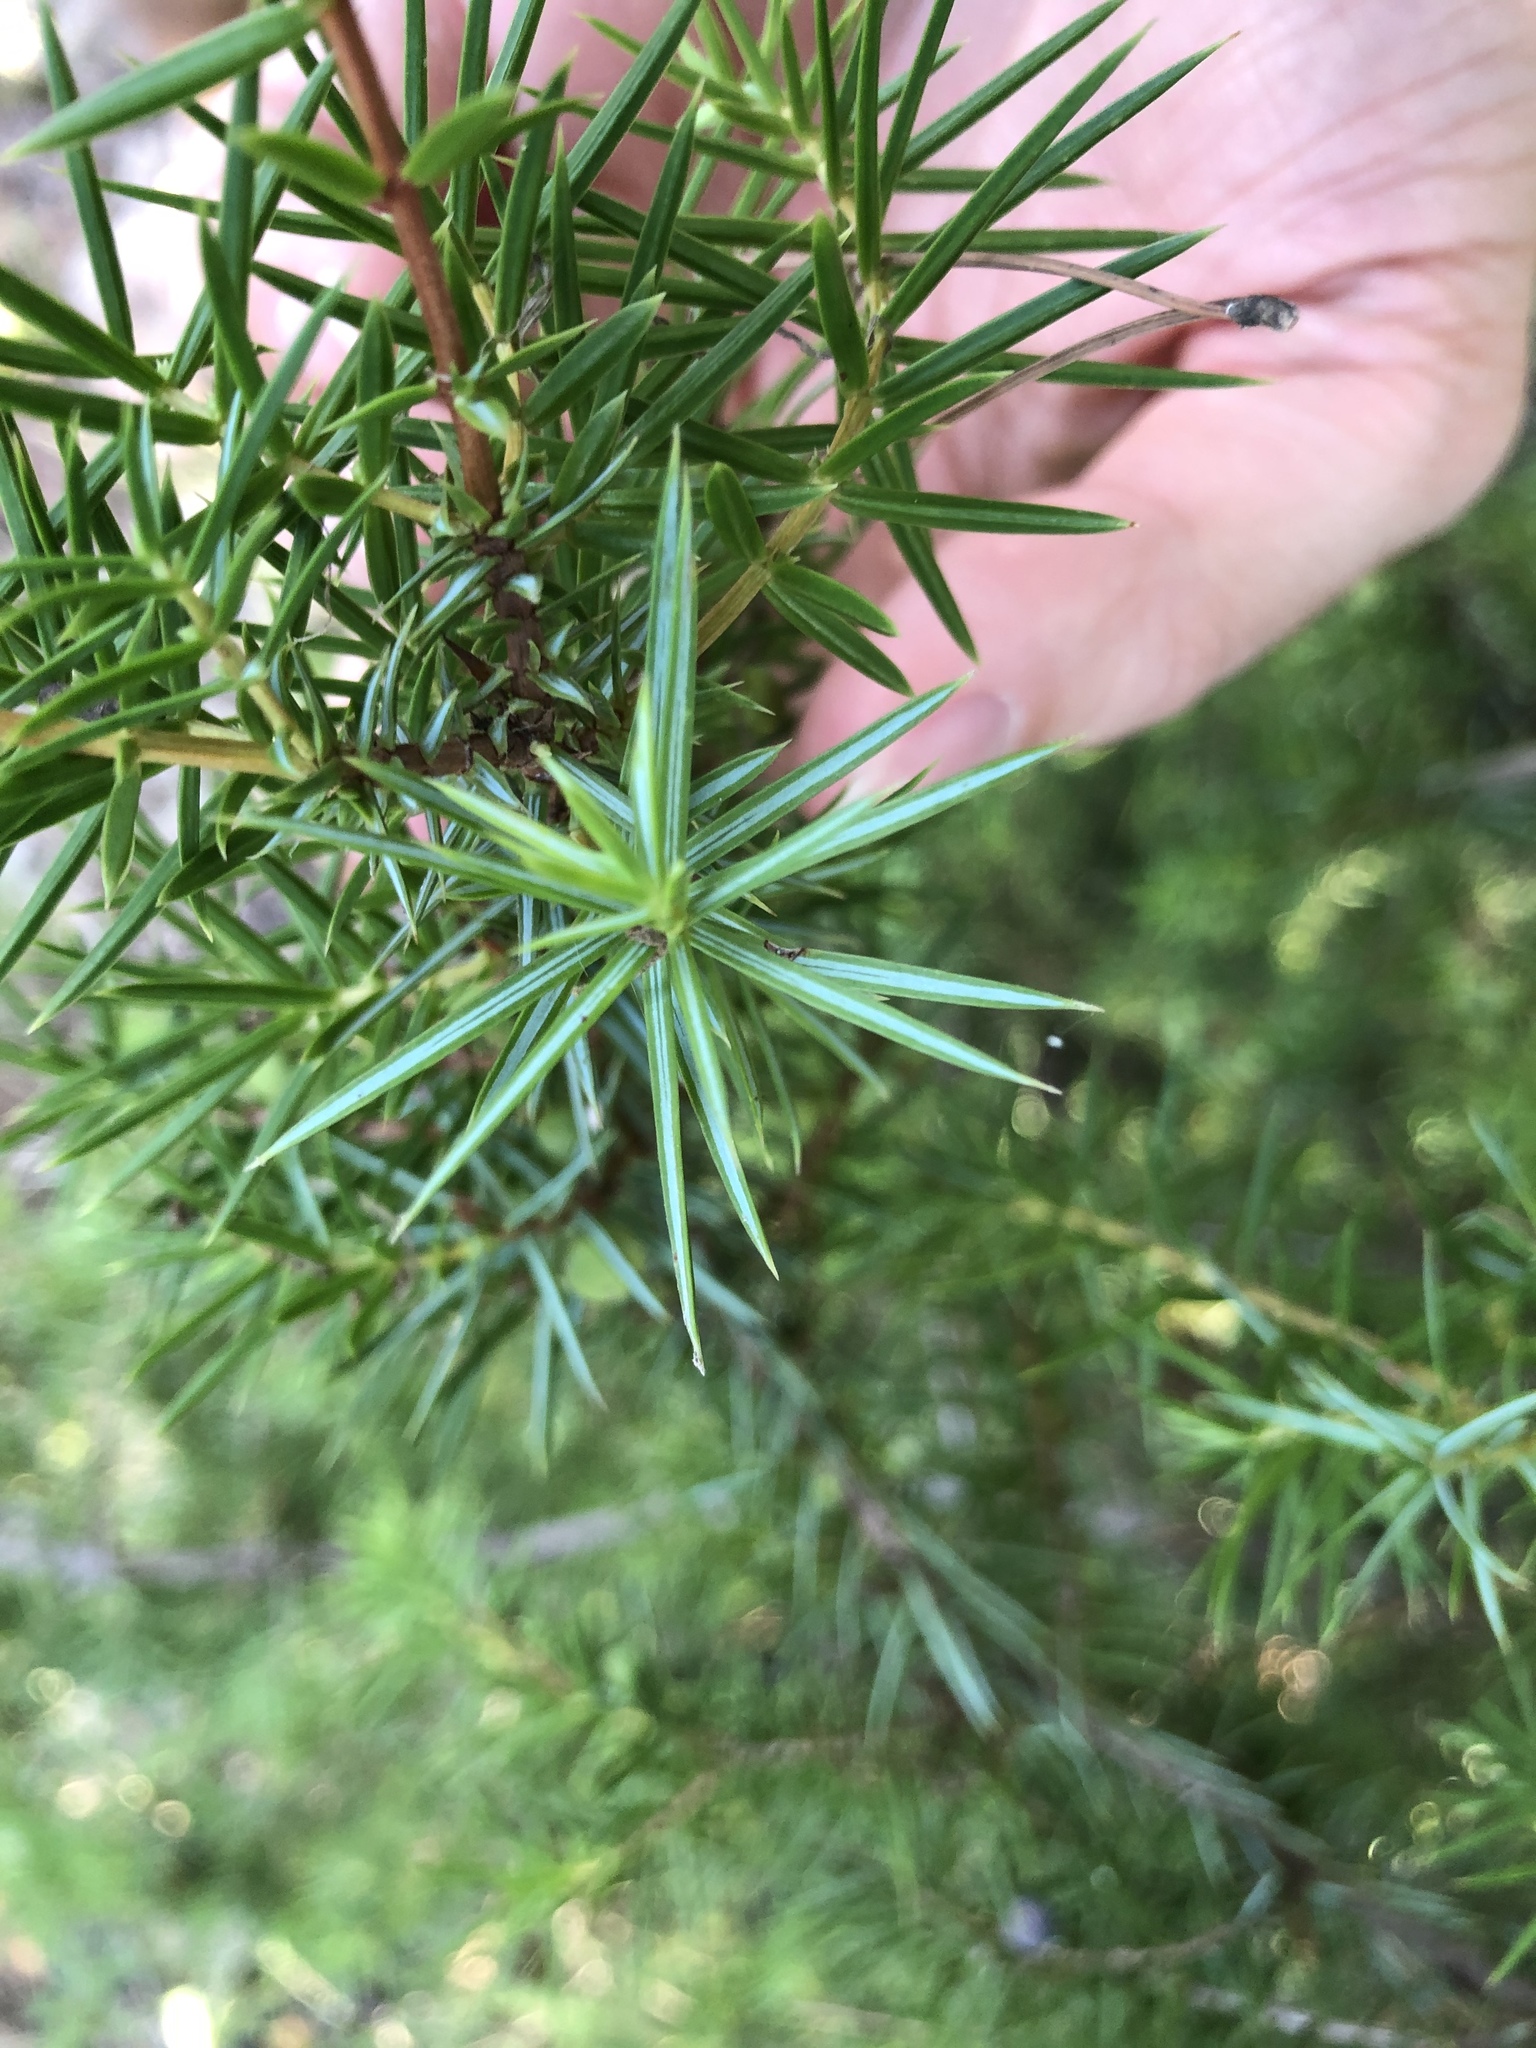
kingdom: Plantae
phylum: Tracheophyta
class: Pinopsida
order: Pinales
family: Cupressaceae
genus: Juniperus
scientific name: Juniperus communis
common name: Common juniper
